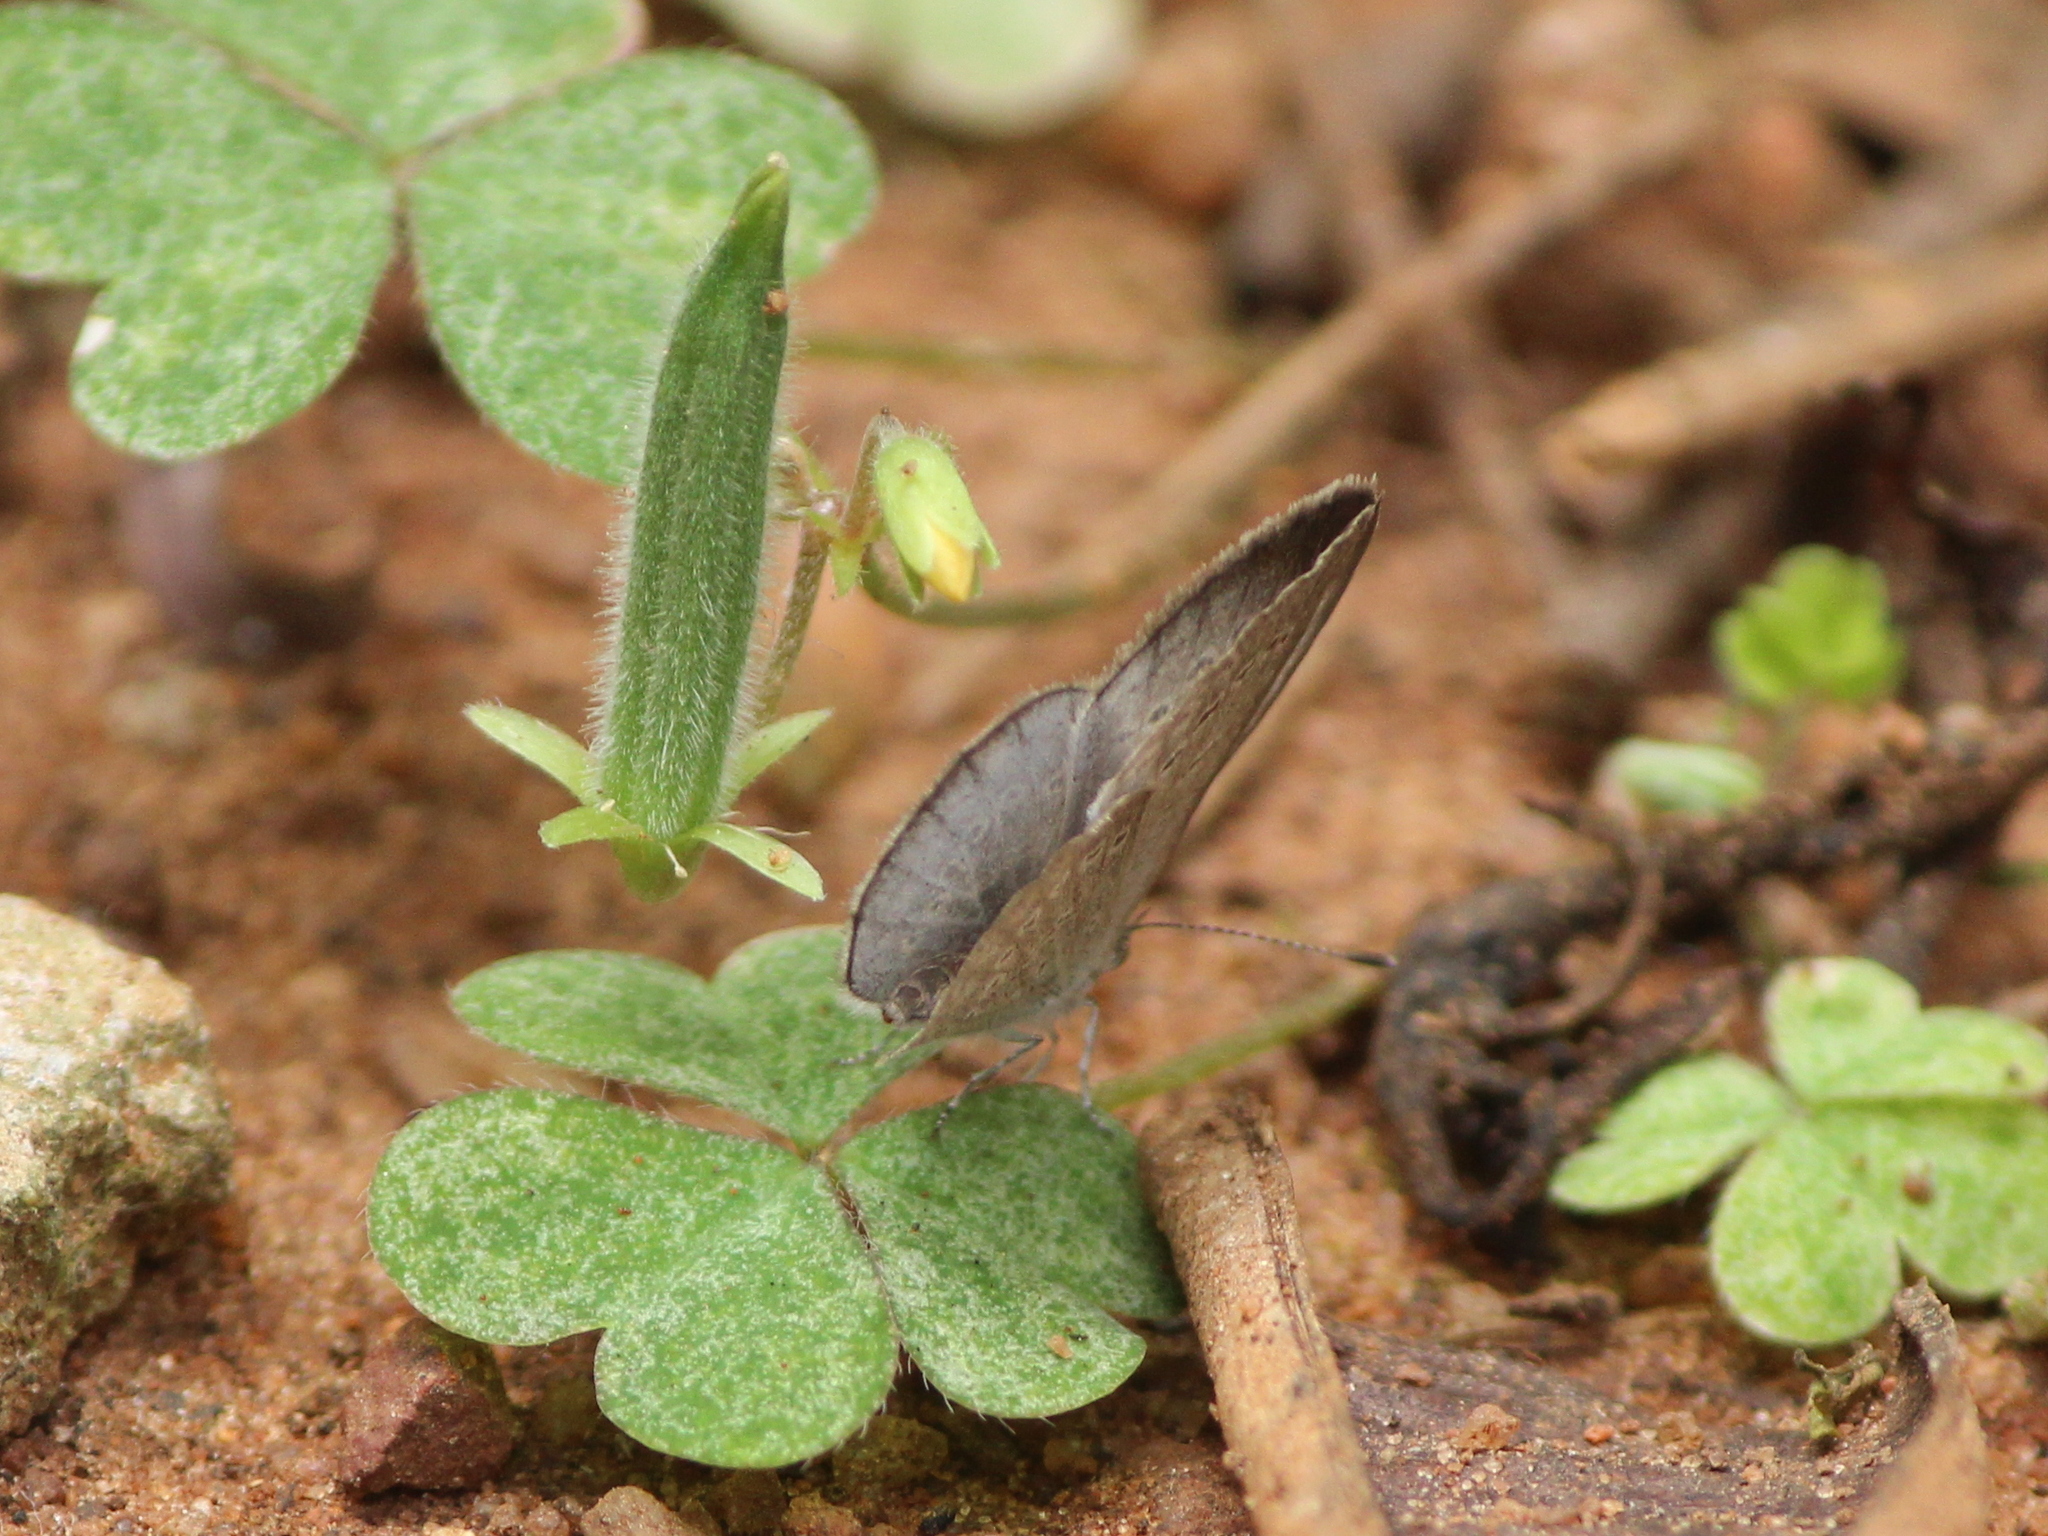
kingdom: Animalia
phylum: Arthropoda
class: Insecta
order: Lepidoptera
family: Lycaenidae
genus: Pseudozizeeria
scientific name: Pseudozizeeria maha
